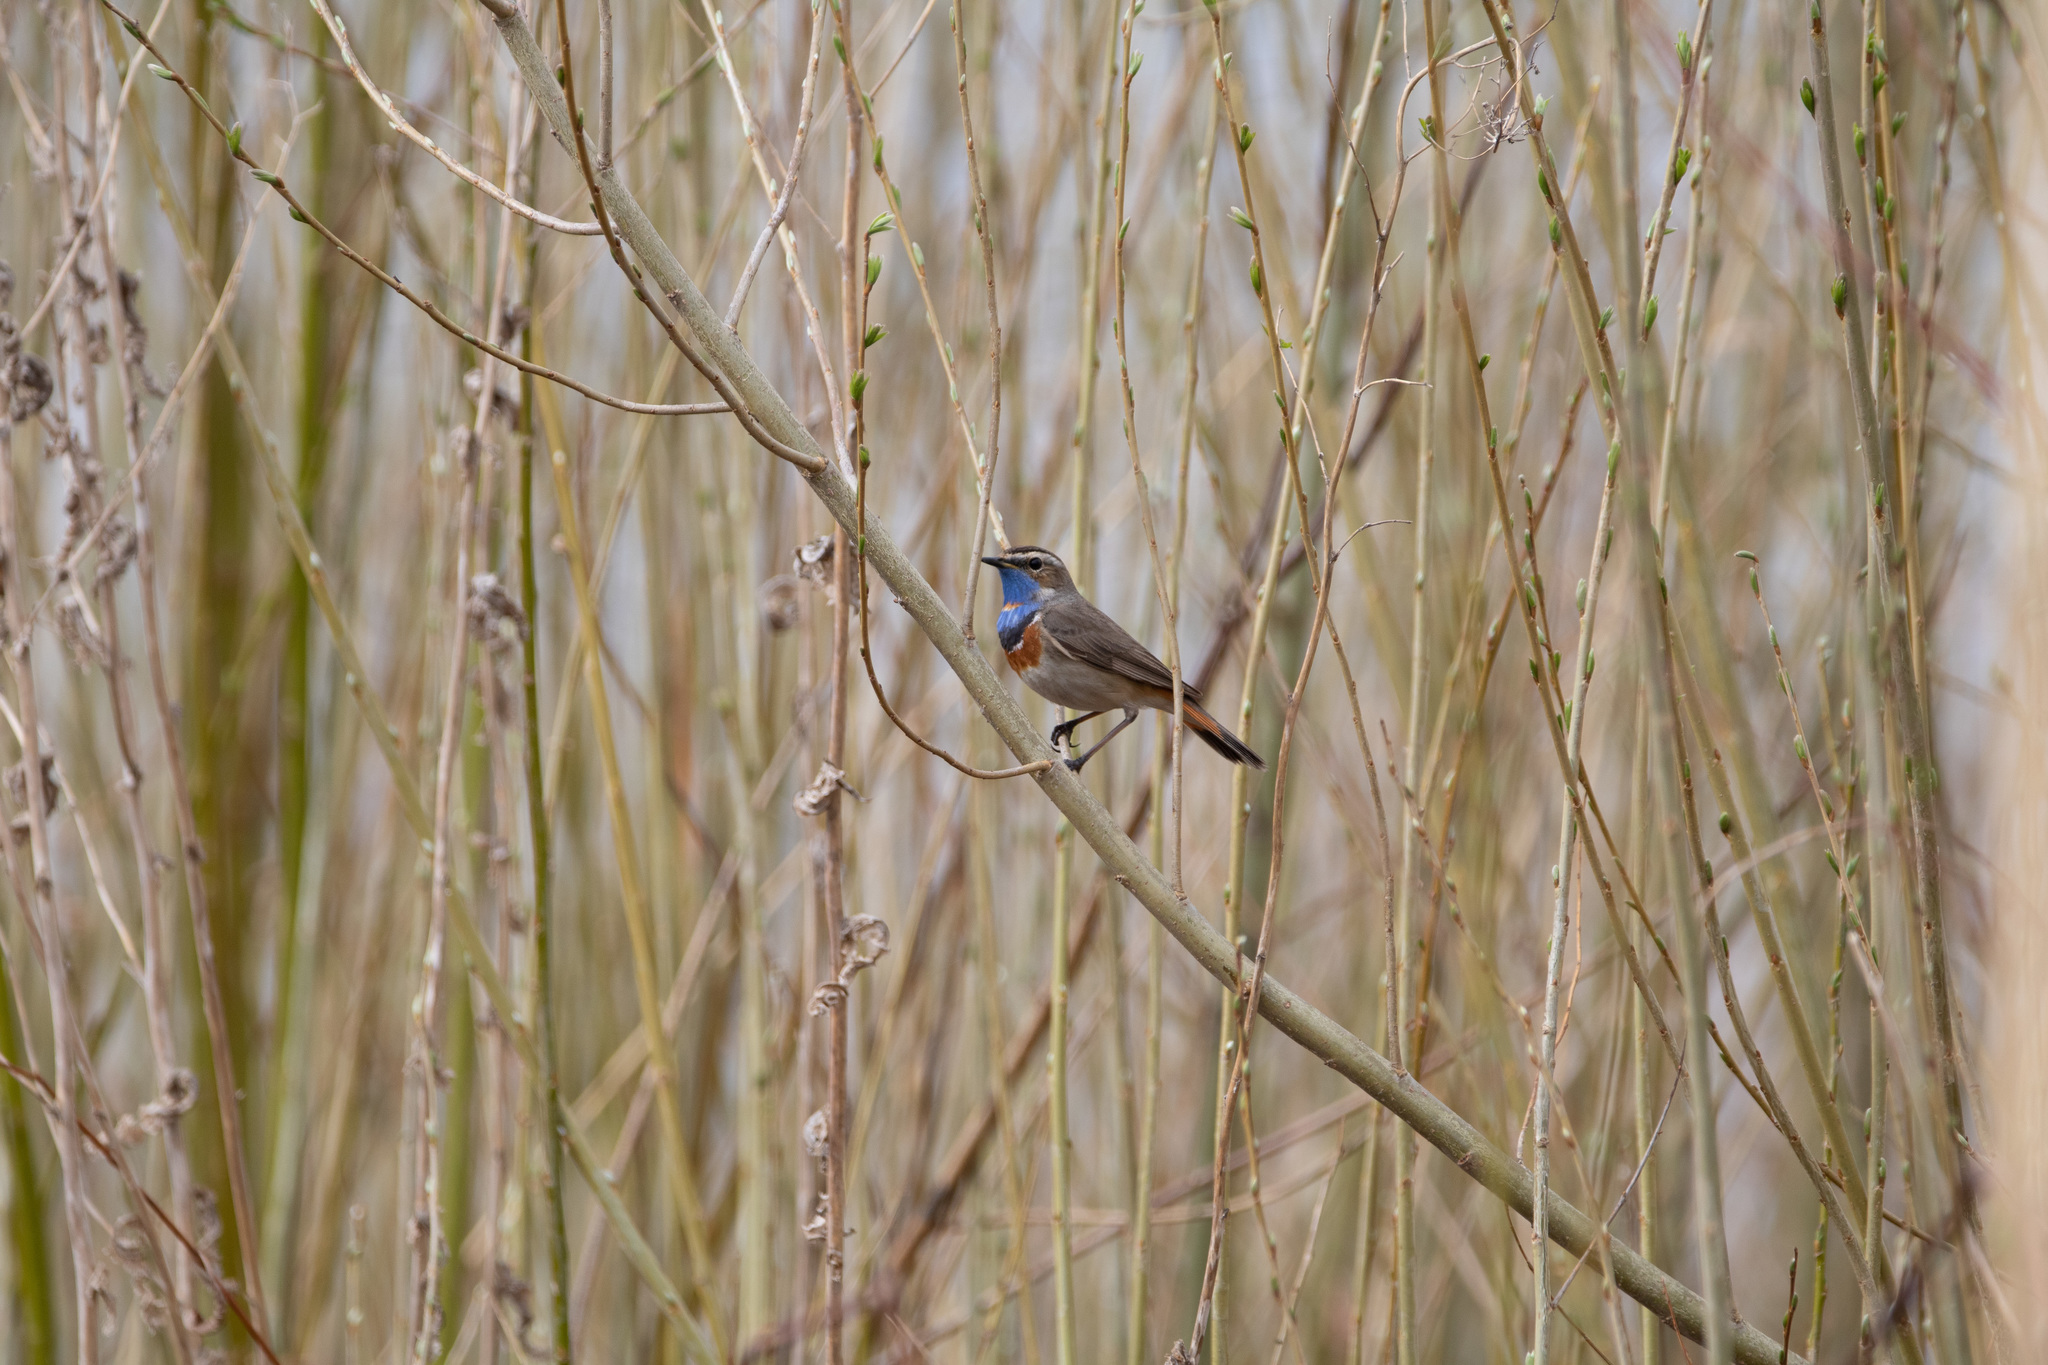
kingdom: Animalia
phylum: Chordata
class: Aves
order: Passeriformes
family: Muscicapidae
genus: Luscinia
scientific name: Luscinia svecica
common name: Bluethroat
